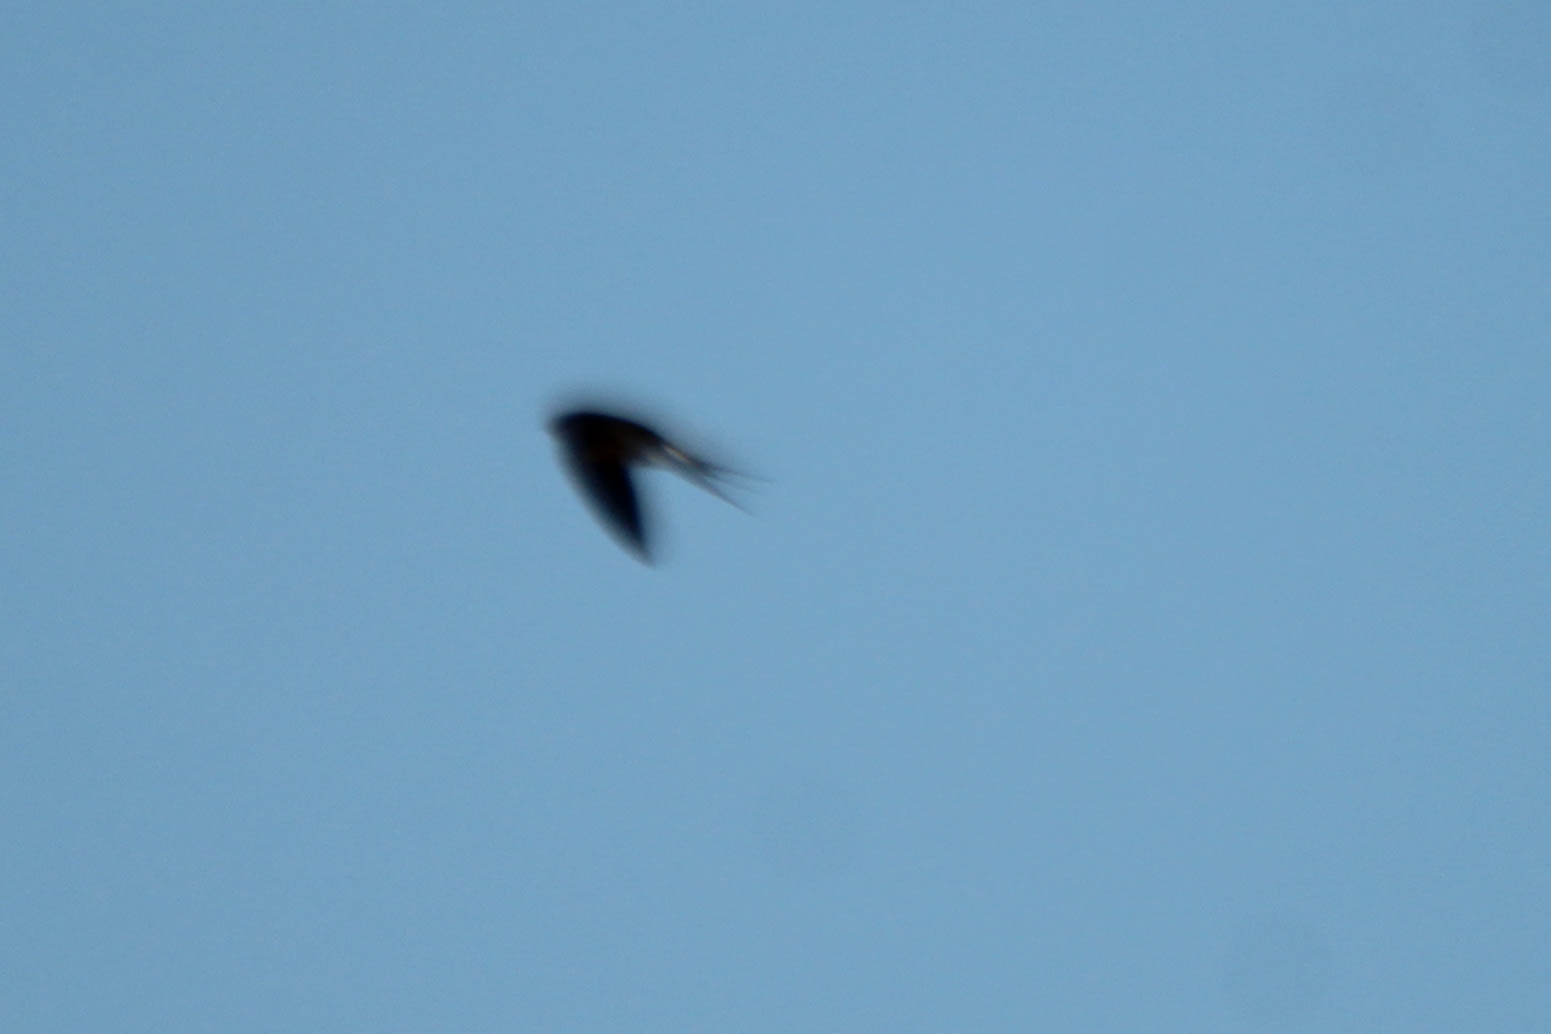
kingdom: Animalia
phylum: Chordata
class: Aves
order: Passeriformes
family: Hirundinidae
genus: Hirundo
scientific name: Hirundo rustica
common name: Barn swallow
